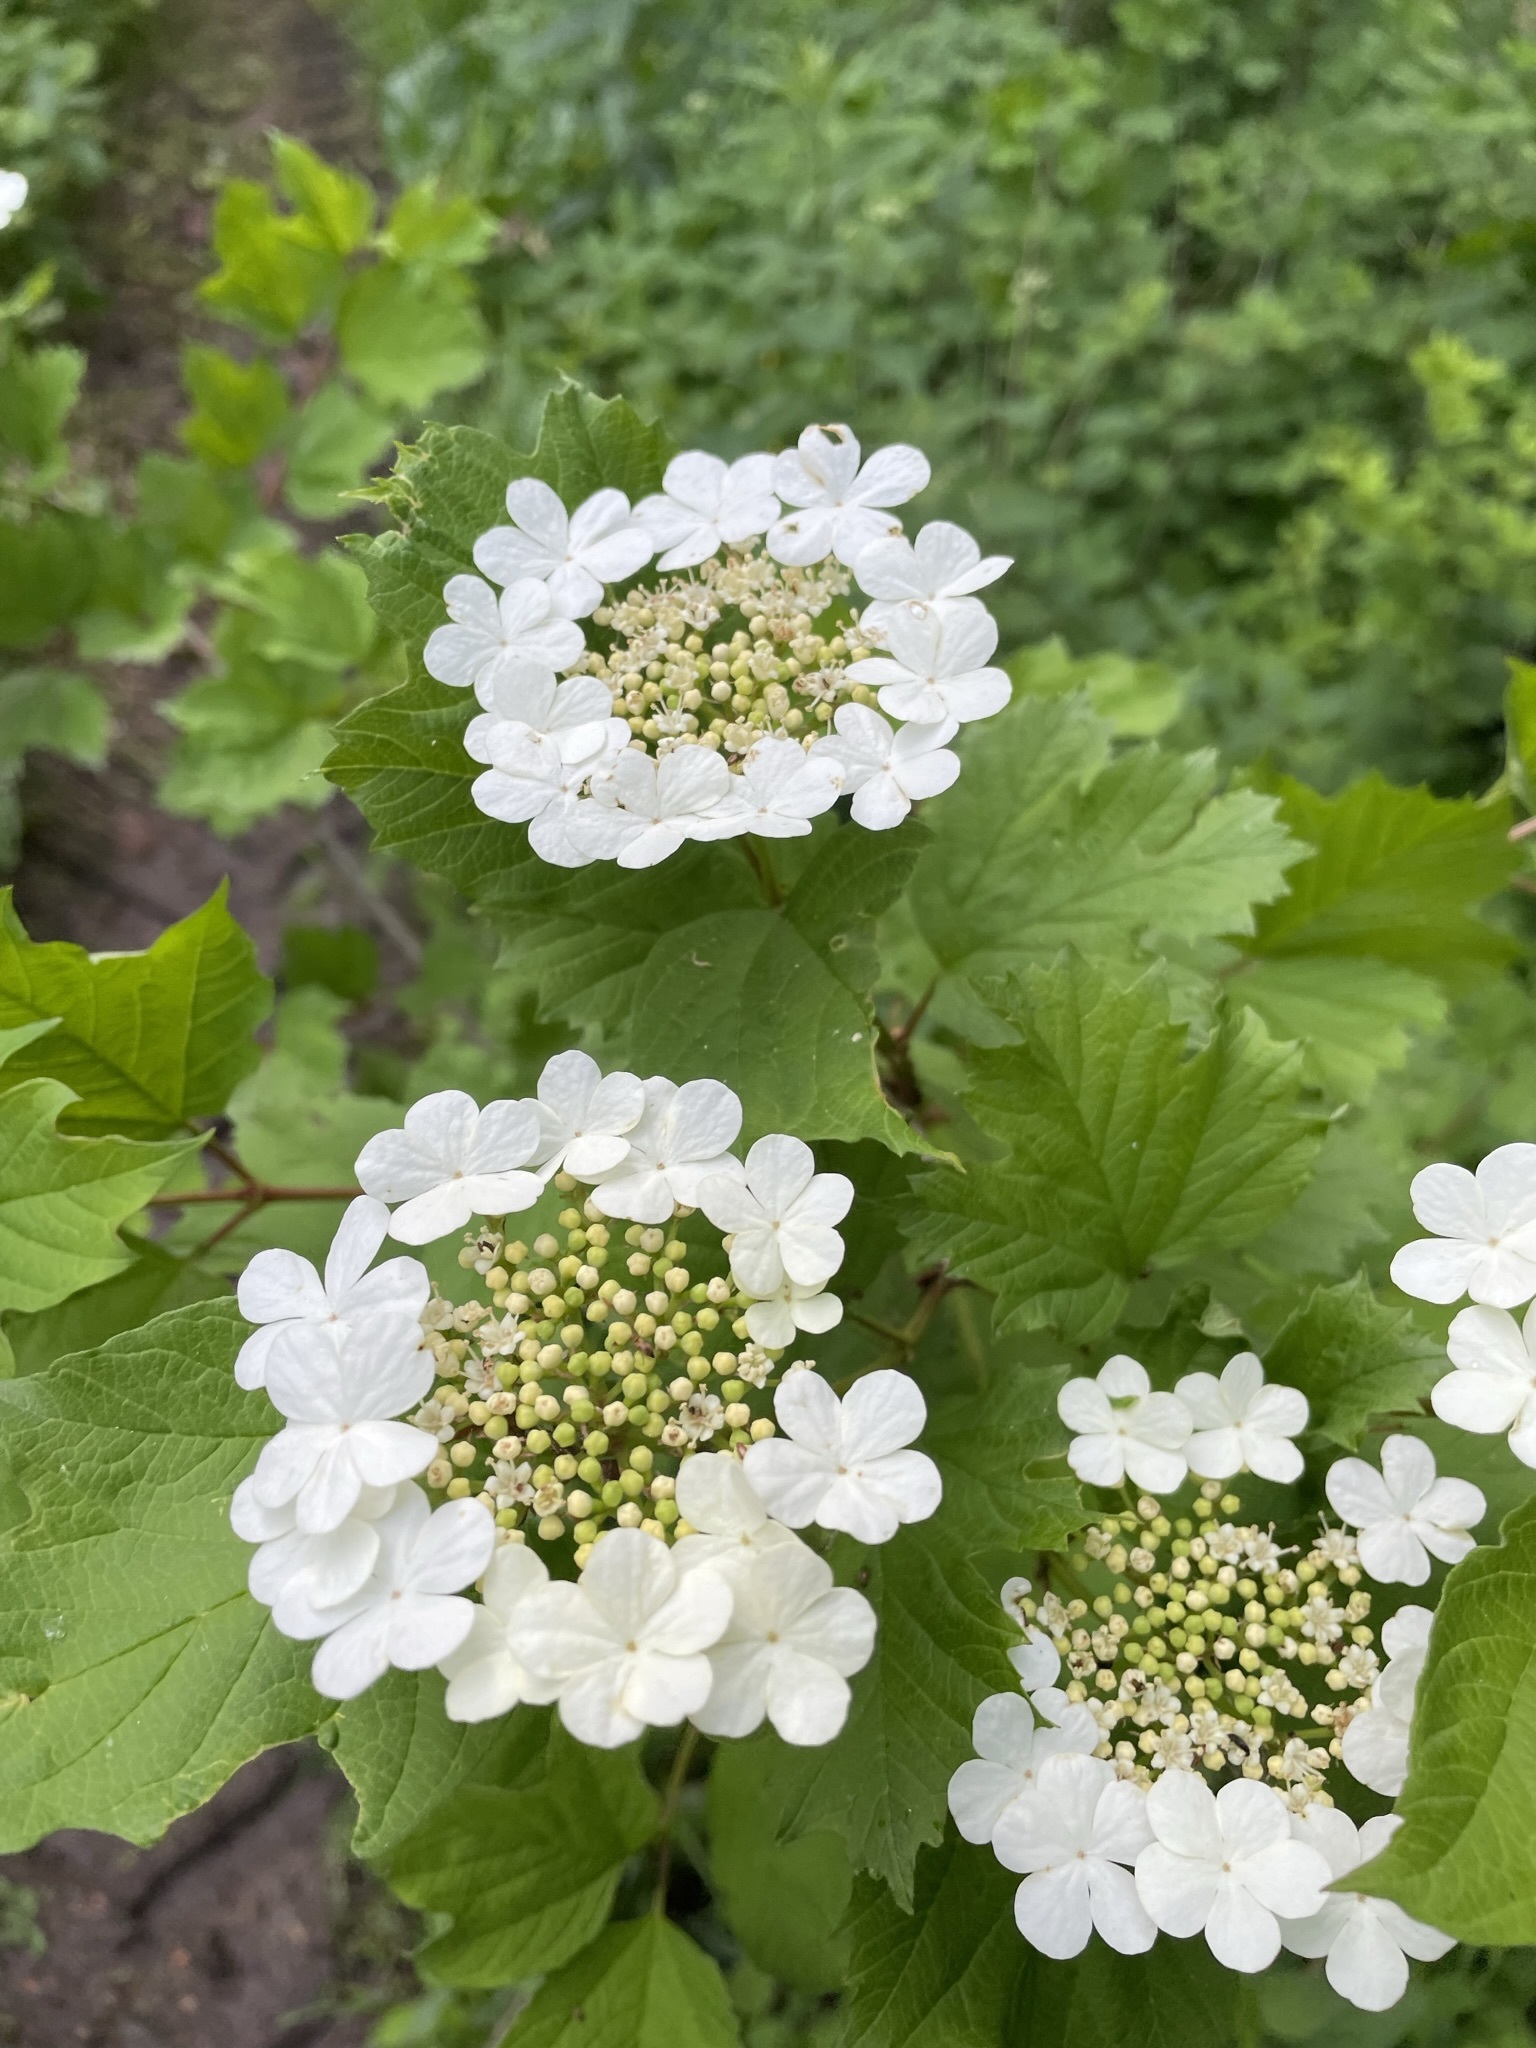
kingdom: Plantae
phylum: Tracheophyta
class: Magnoliopsida
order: Dipsacales
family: Viburnaceae
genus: Viburnum
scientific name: Viburnum opulus
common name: Guelder-rose
